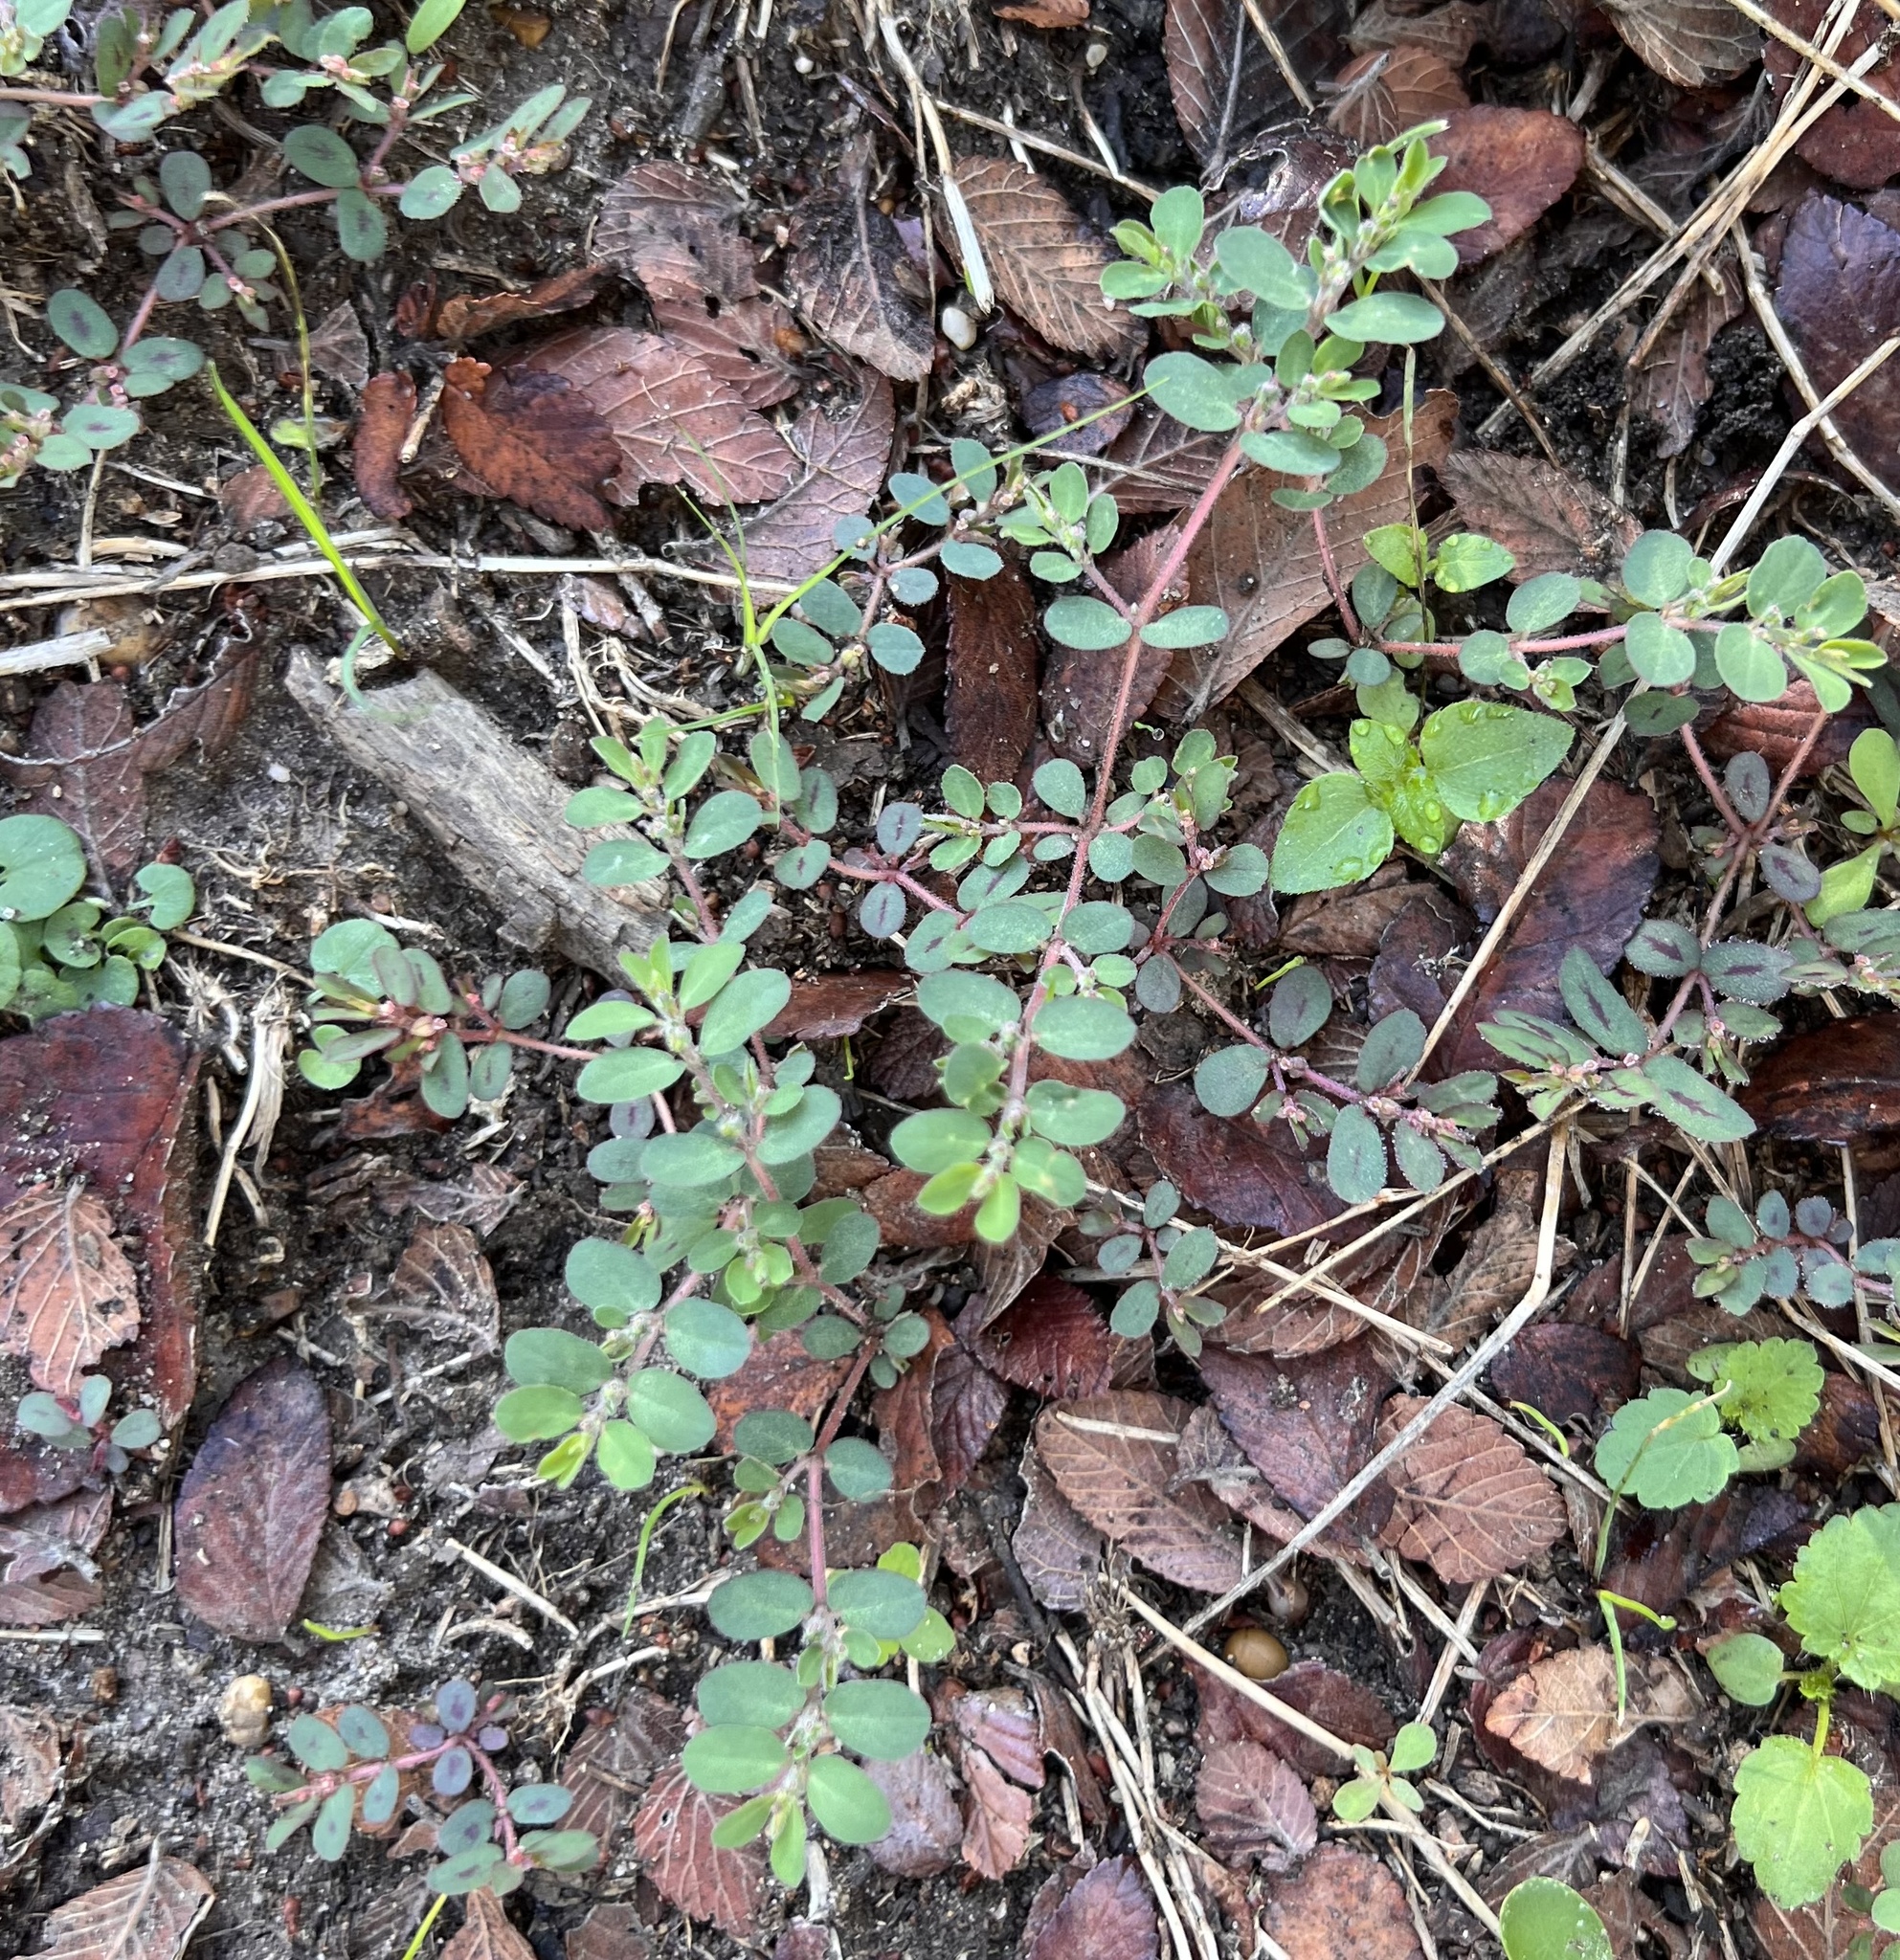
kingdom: Plantae
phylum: Tracheophyta
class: Magnoliopsida
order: Malpighiales
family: Euphorbiaceae
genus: Euphorbia
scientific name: Euphorbia prostrata
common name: Prostrate sandmat
